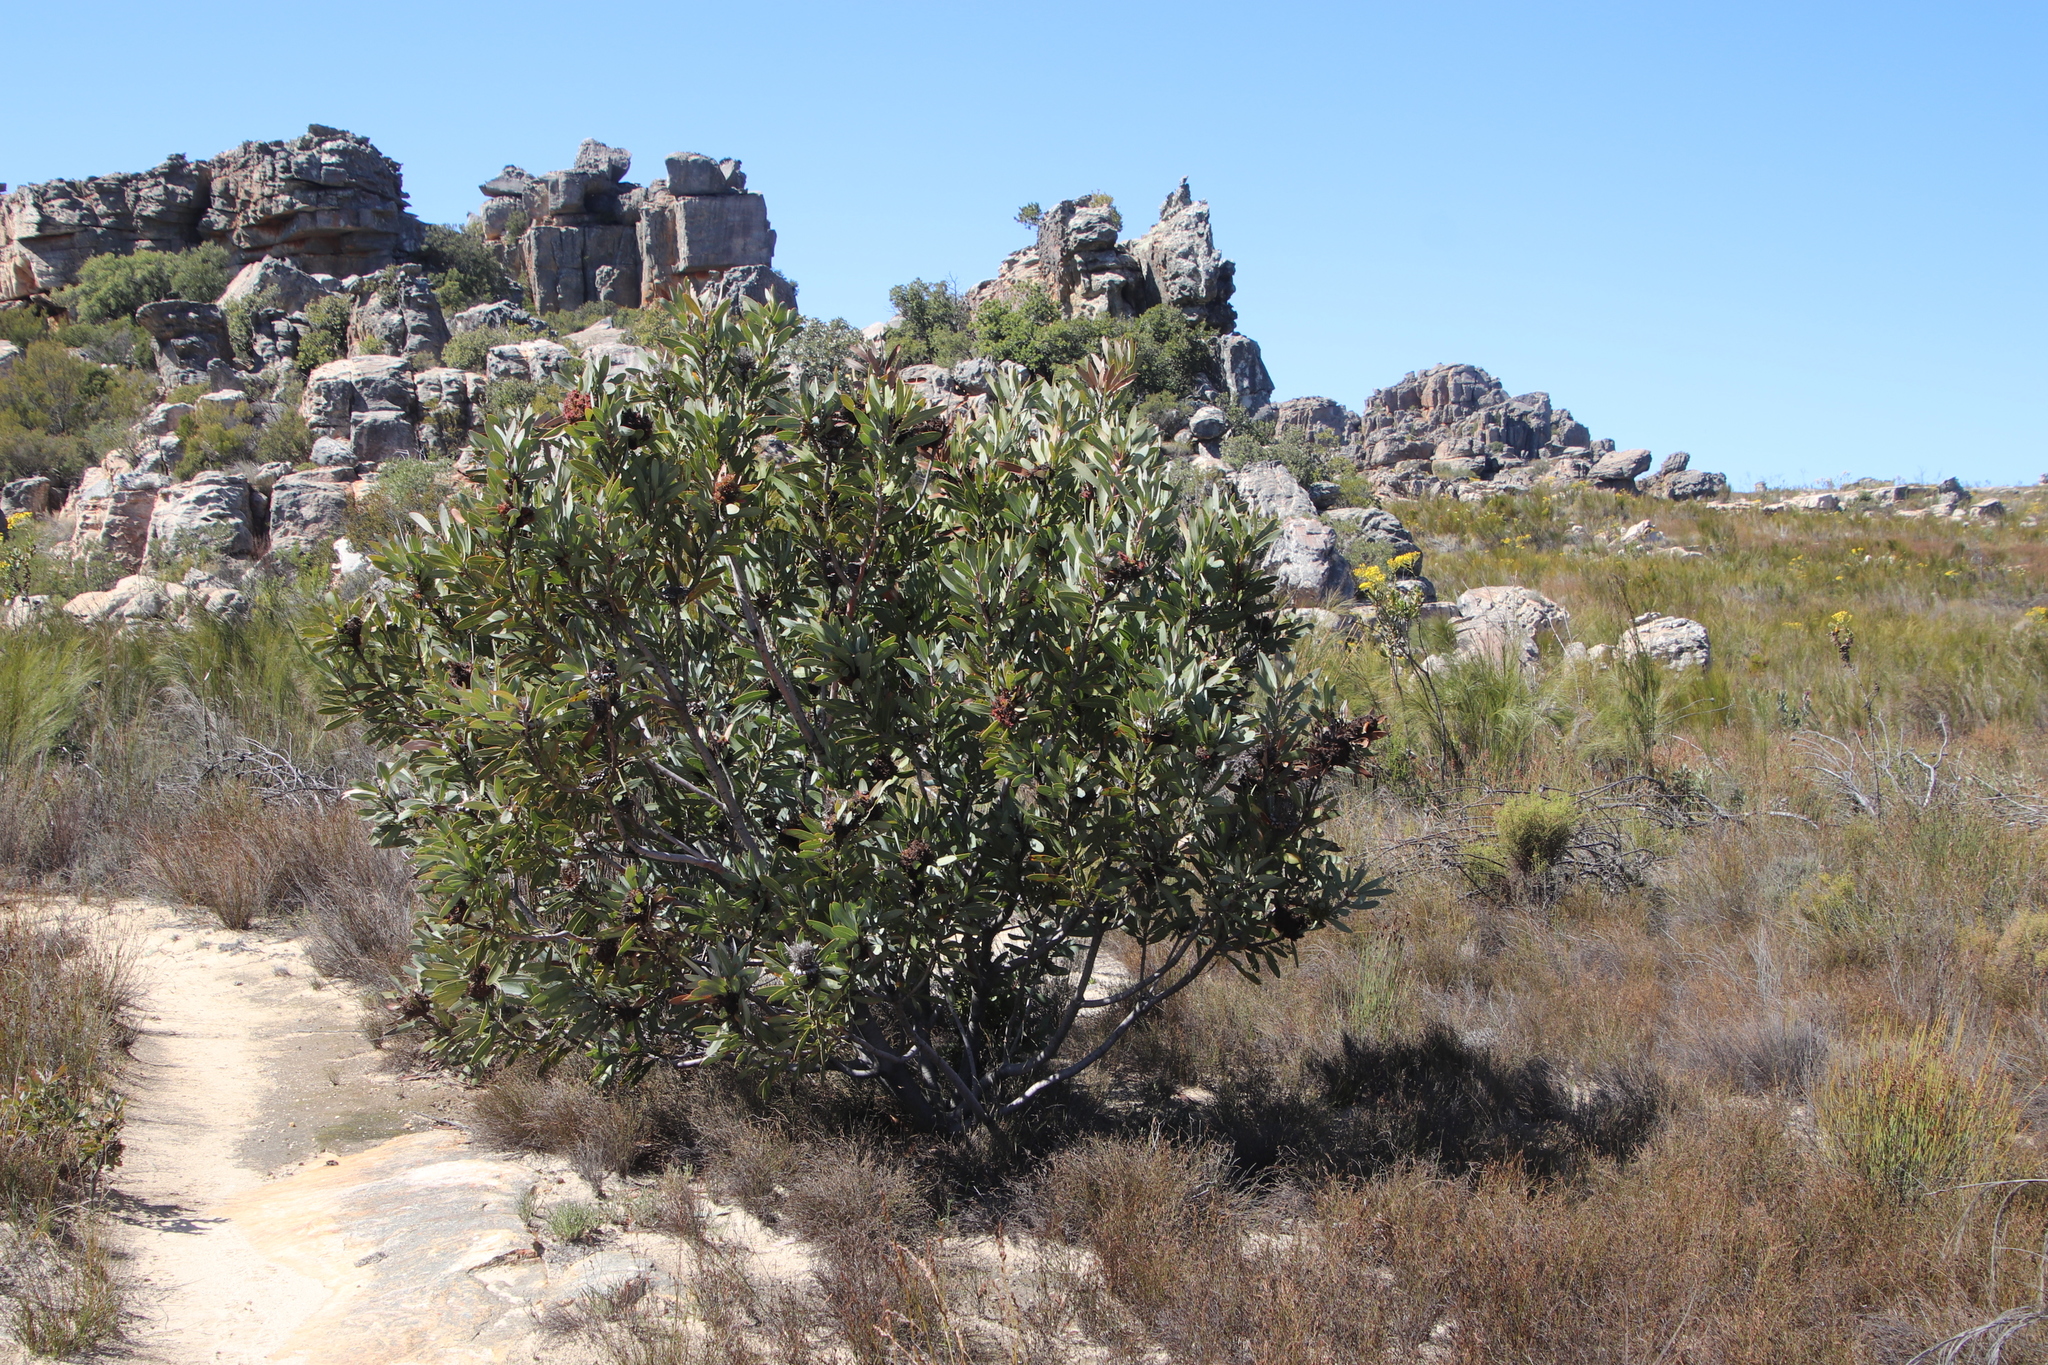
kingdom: Plantae
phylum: Tracheophyta
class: Magnoliopsida
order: Proteales
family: Proteaceae
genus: Protea
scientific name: Protea laurifolia
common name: Grey-leaf sugarbsh
